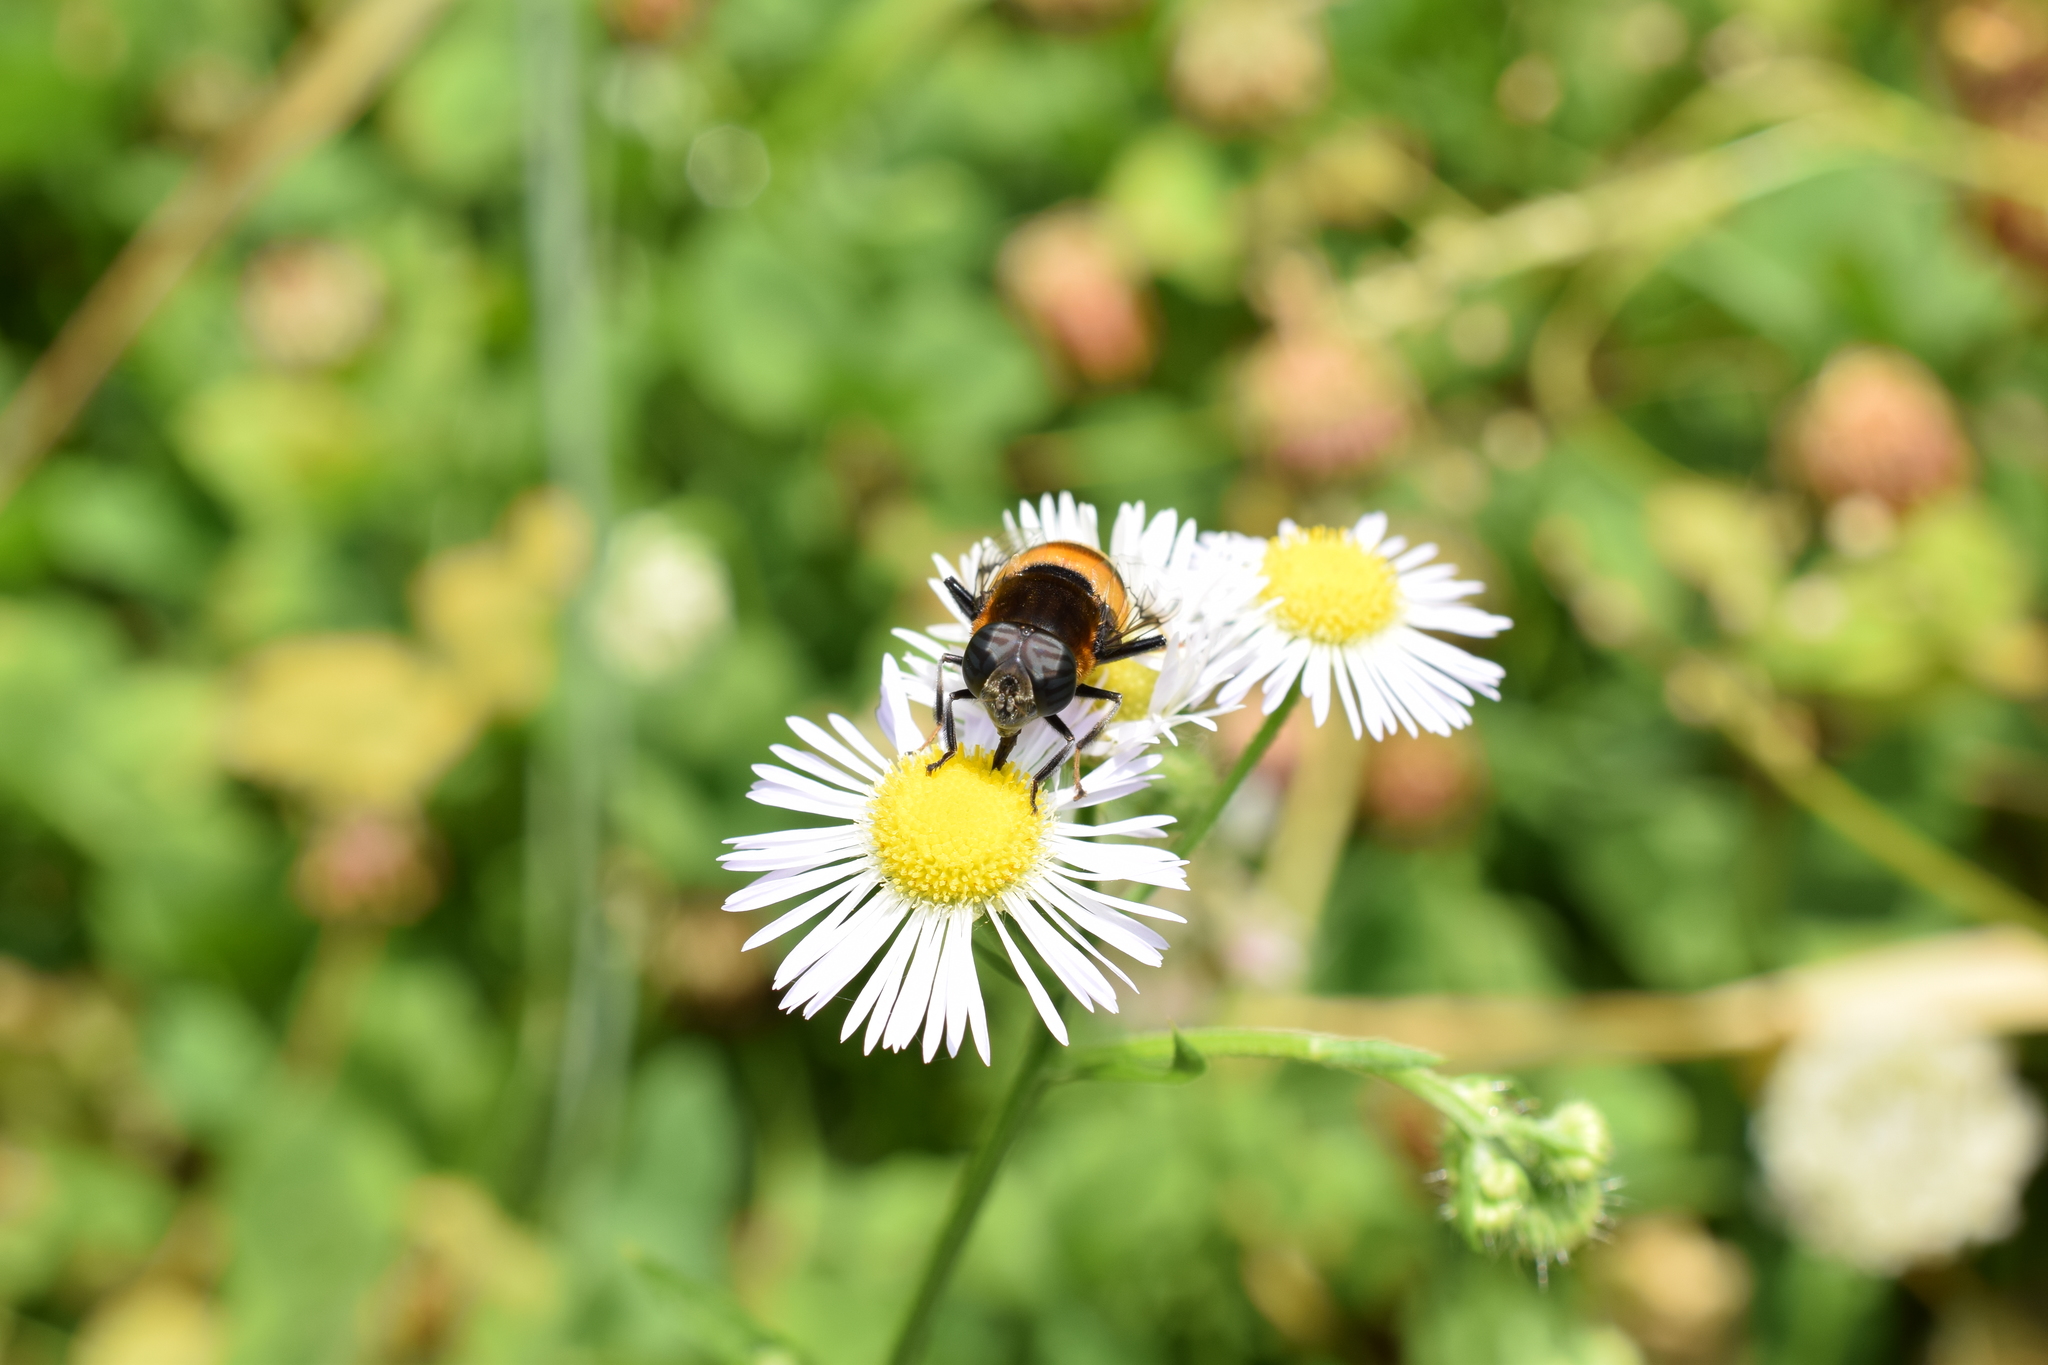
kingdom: Animalia
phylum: Arthropoda
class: Insecta
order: Diptera
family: Syrphidae
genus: Phytomia
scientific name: Phytomia zonata
